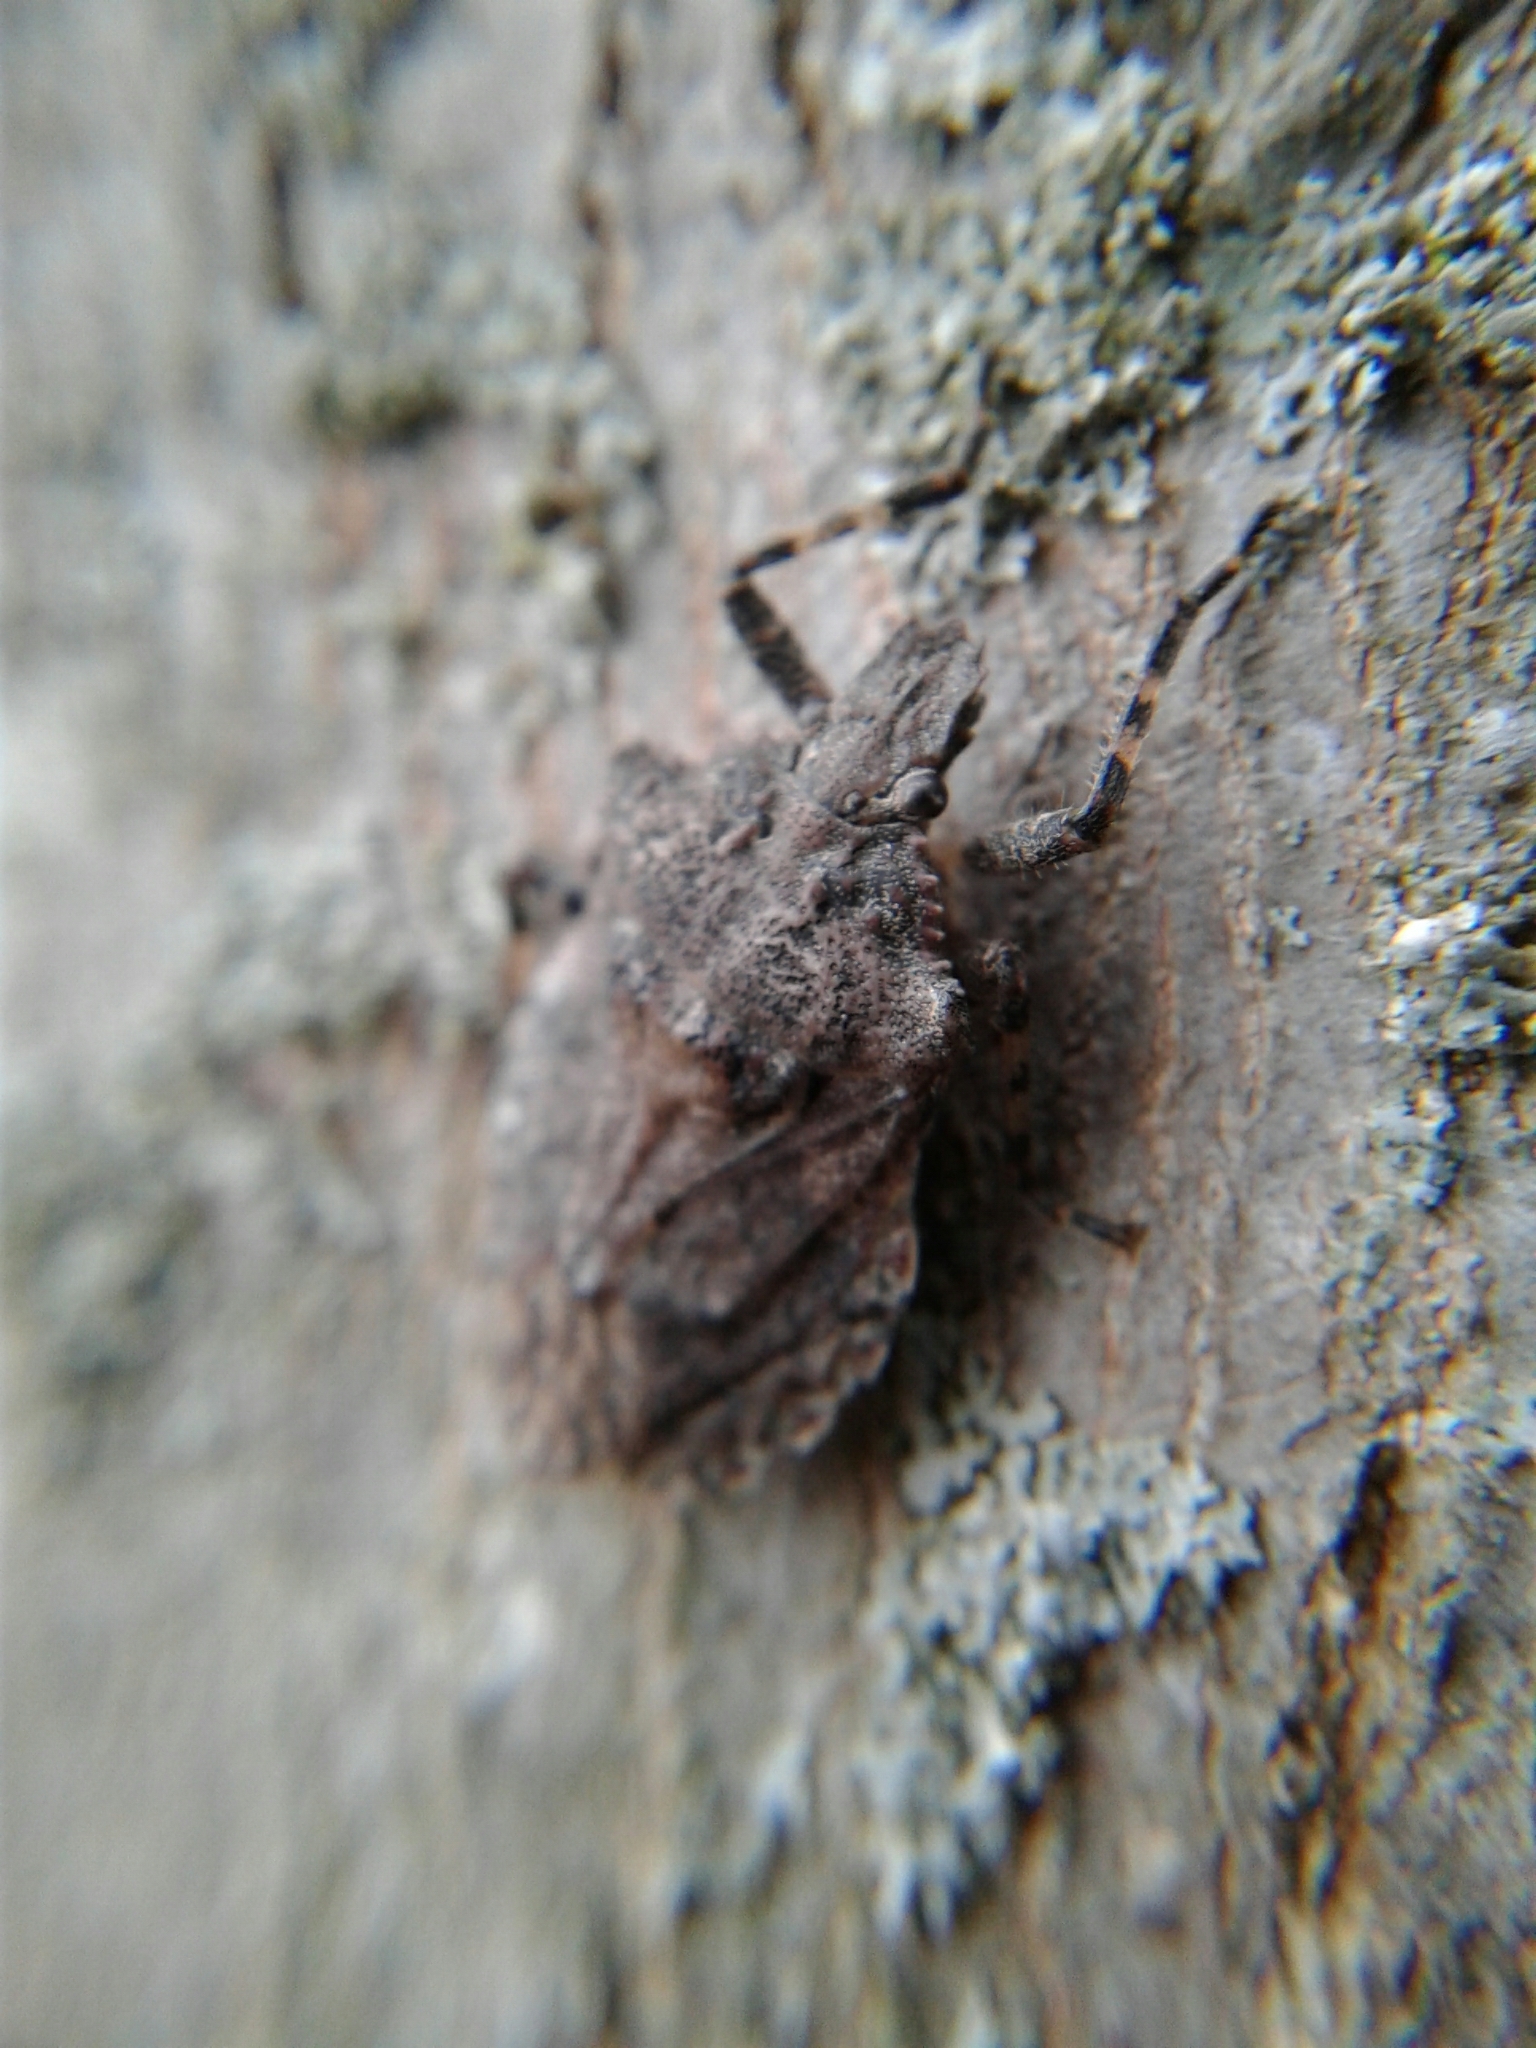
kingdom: Animalia
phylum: Arthropoda
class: Insecta
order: Hemiptera
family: Pentatomidae
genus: Brochymena
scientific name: Brochymena quadripustulata
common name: Four-humped stink bug
